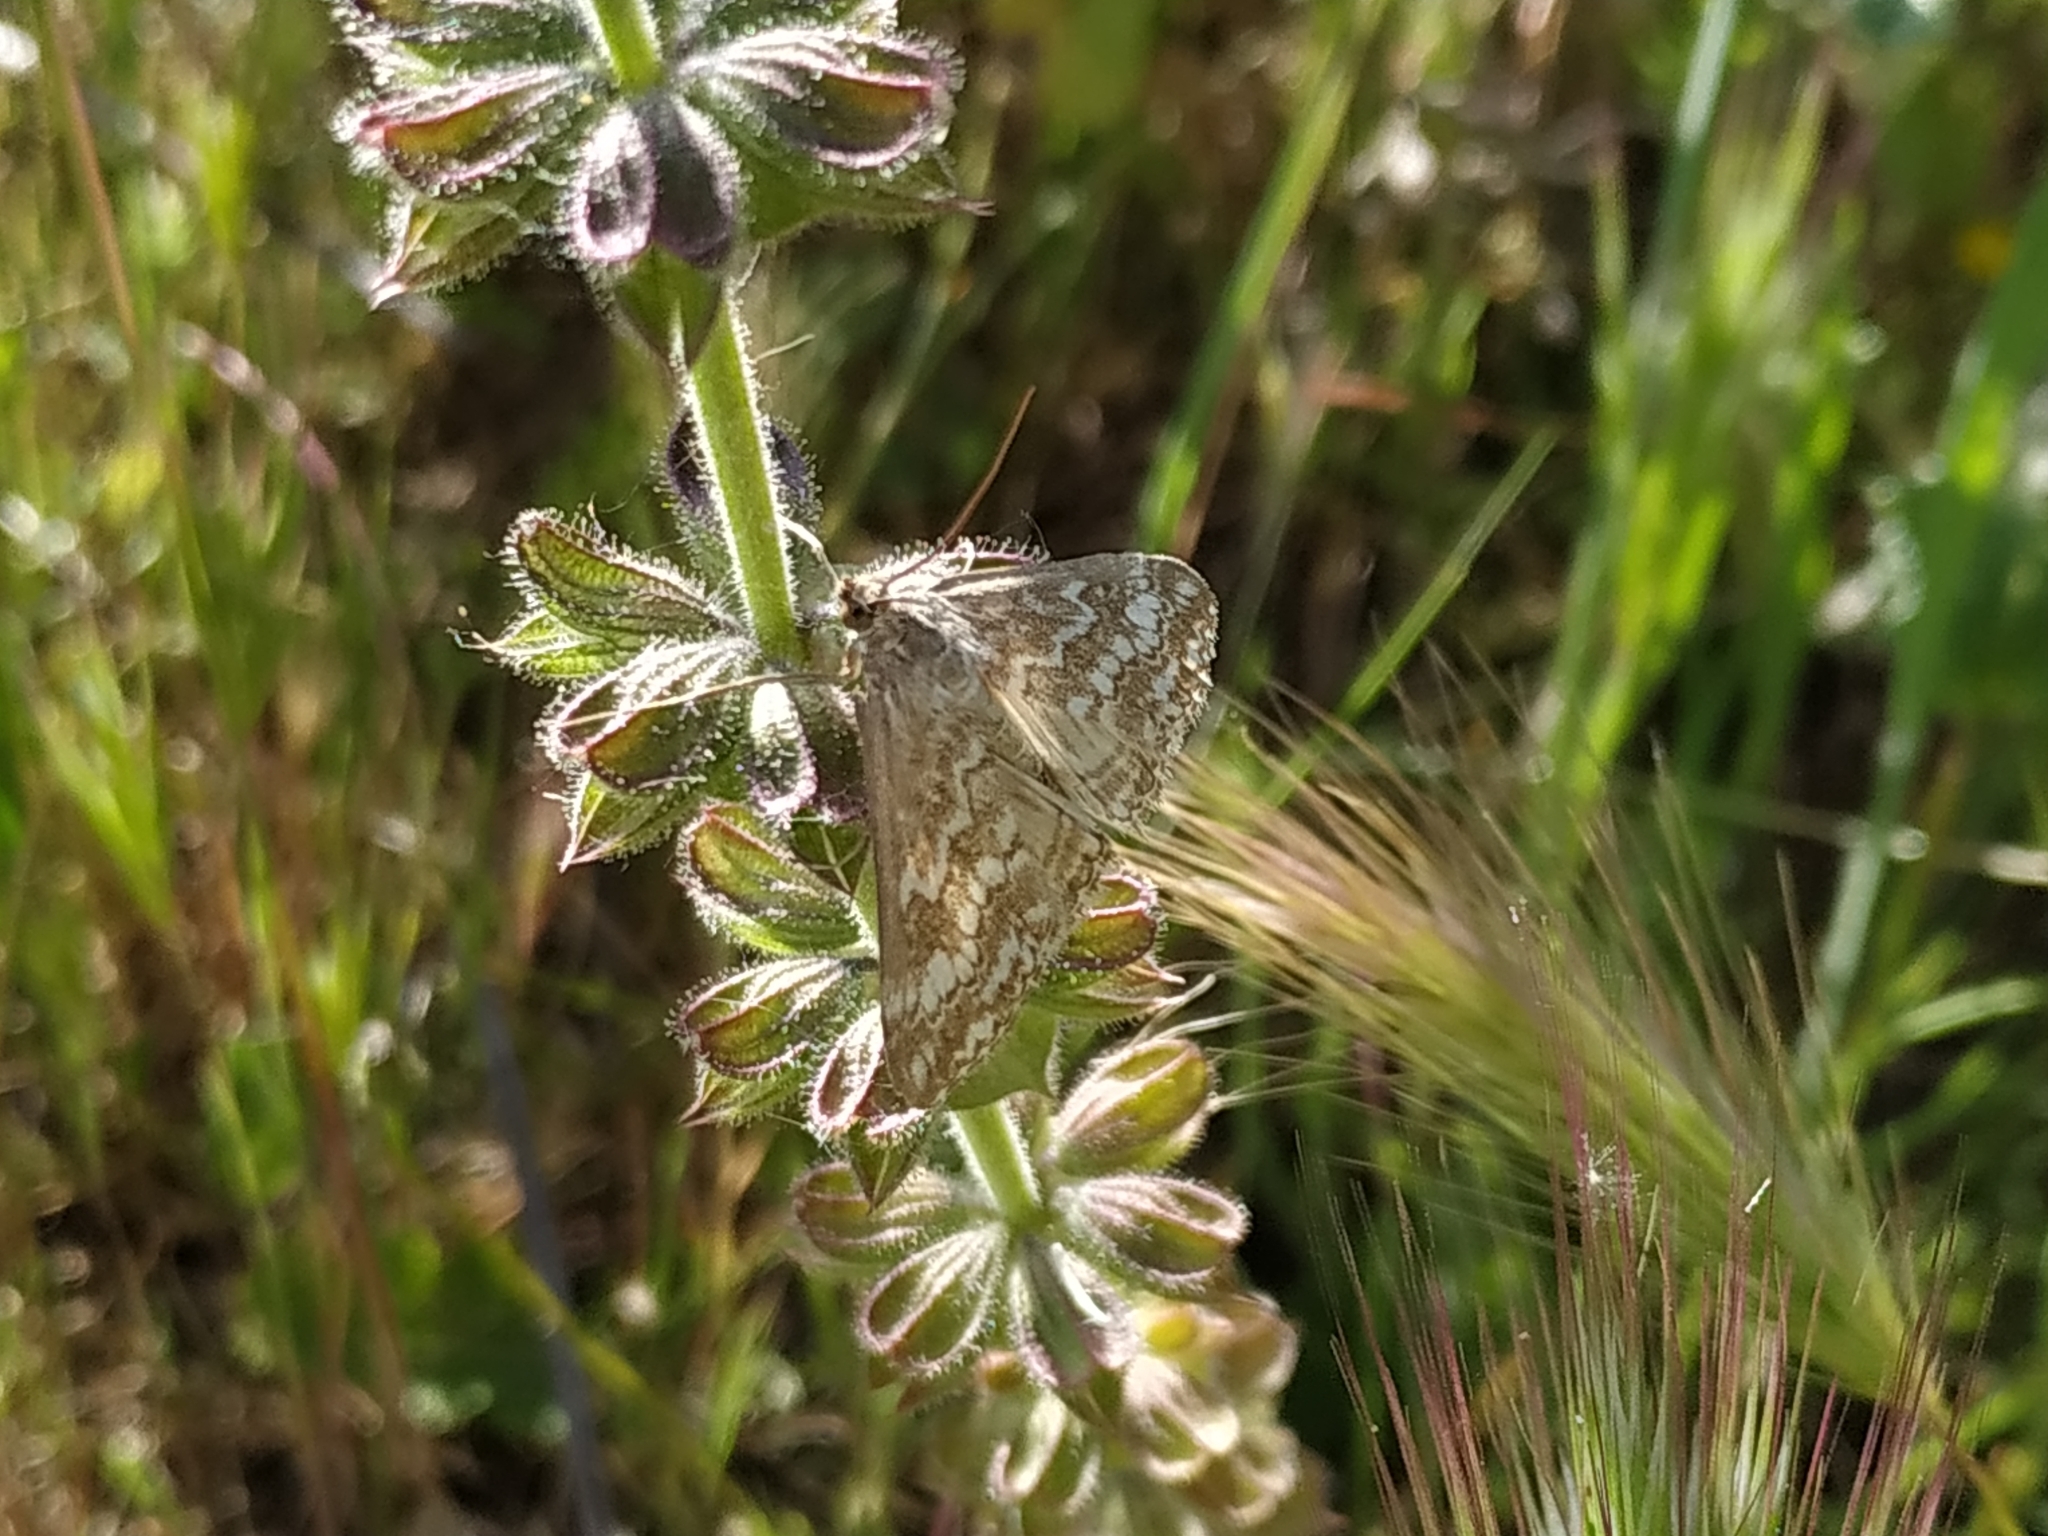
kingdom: Animalia
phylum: Arthropoda
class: Insecta
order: Lepidoptera
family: Crambidae
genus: Evergestis
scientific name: Evergestis frumentalis
